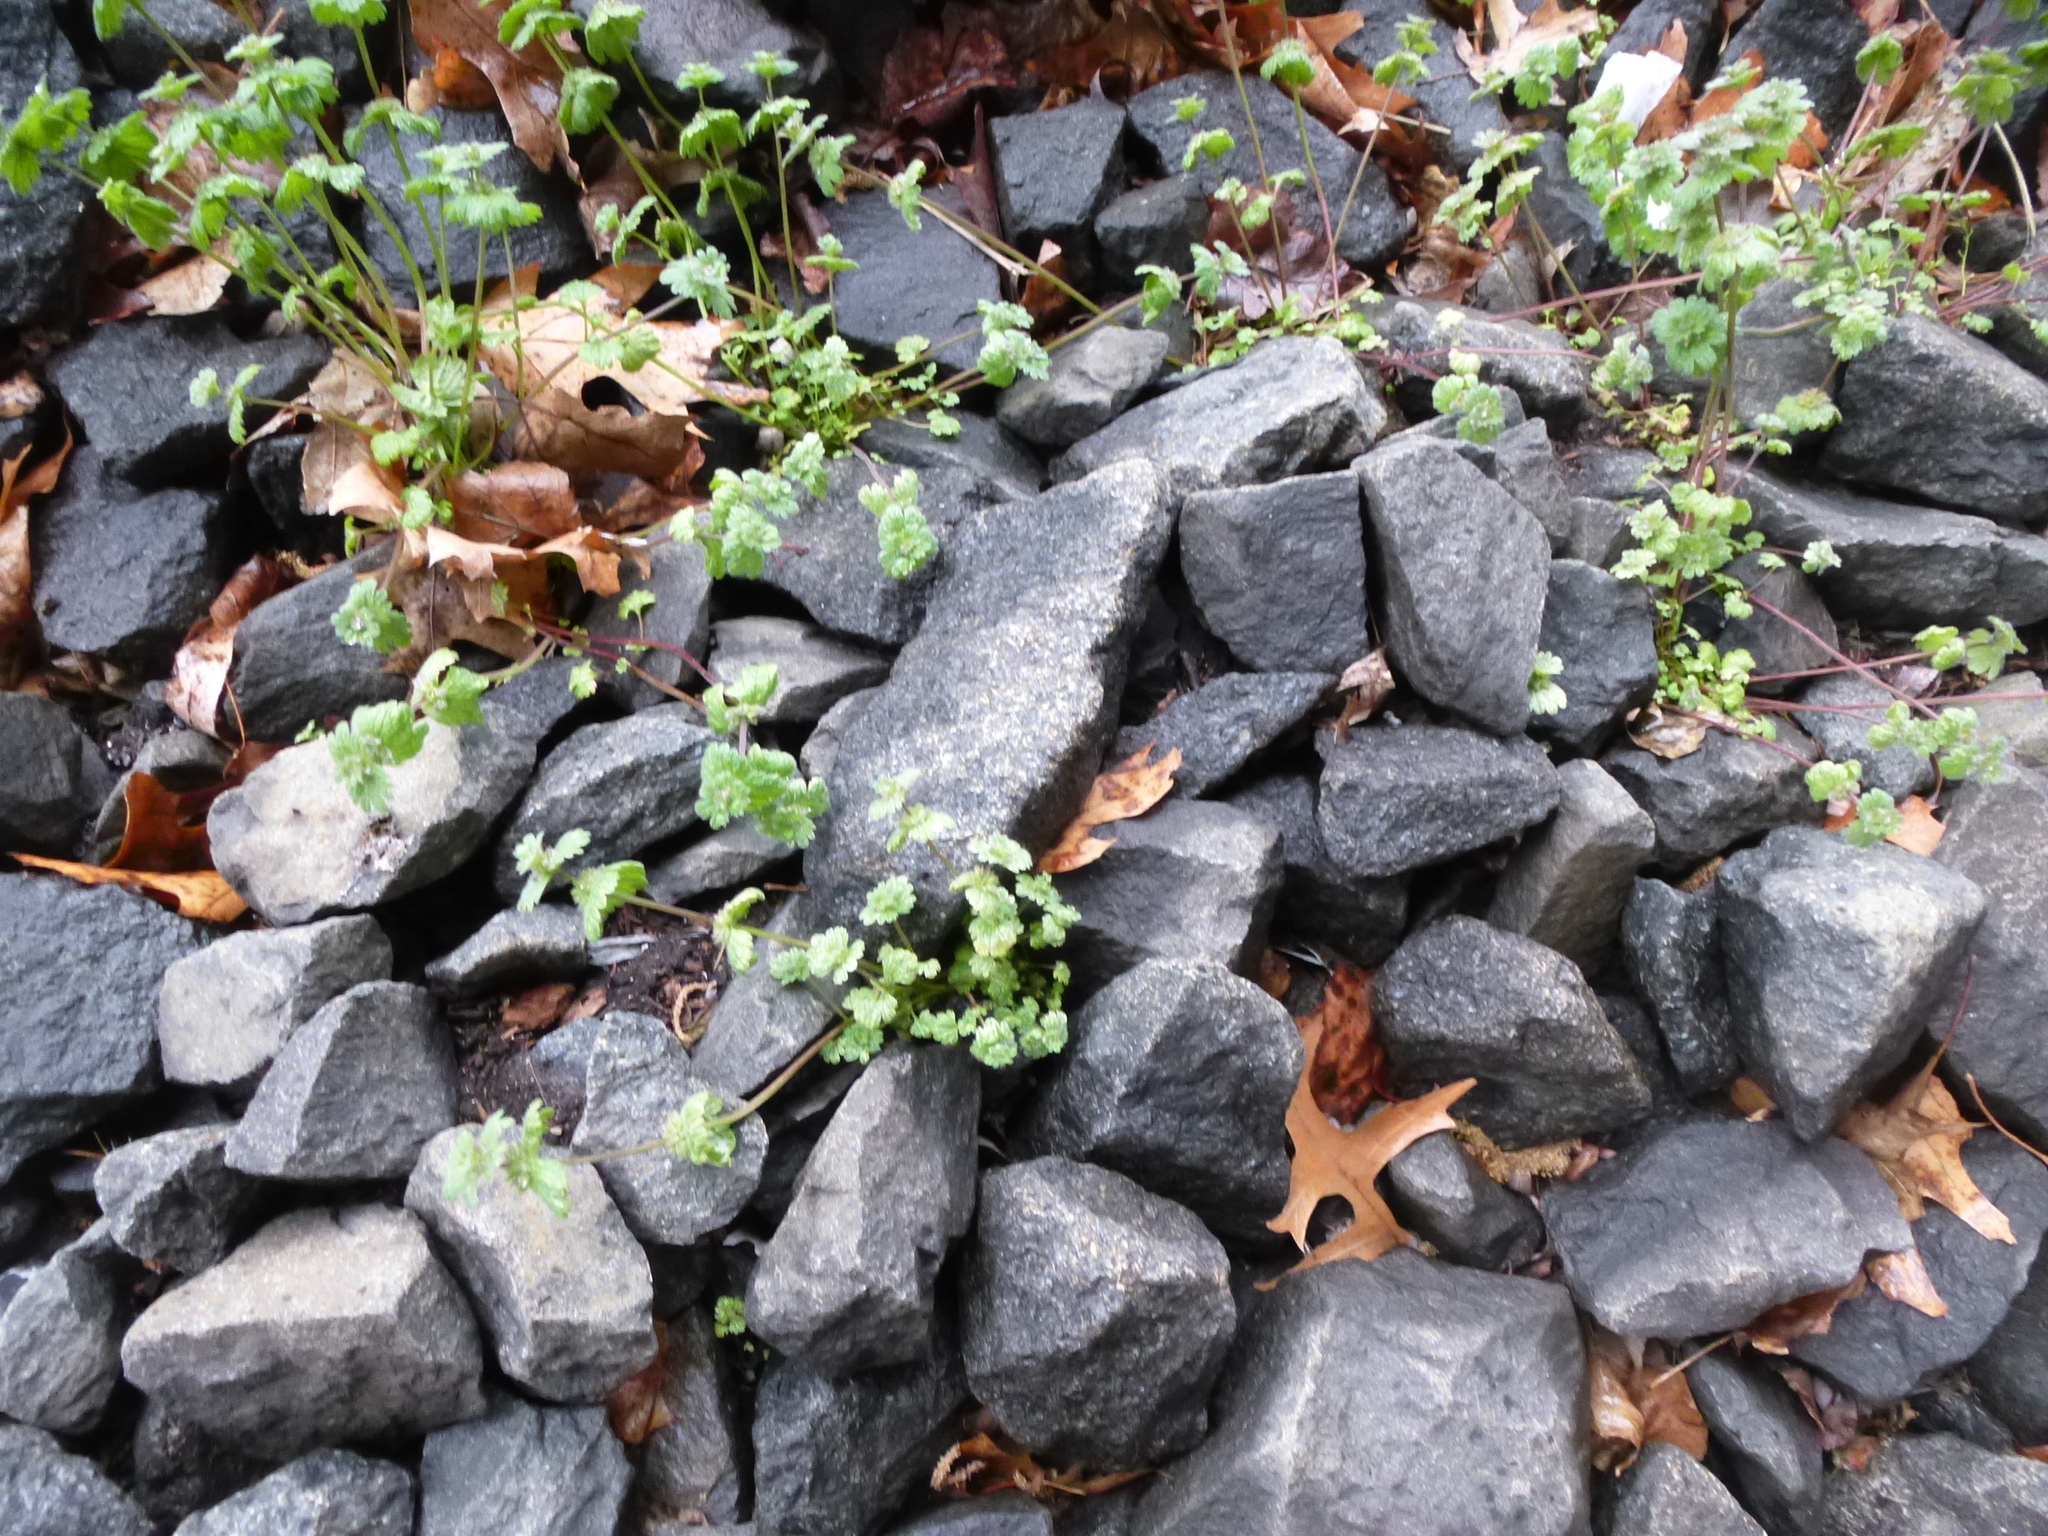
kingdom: Plantae
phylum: Tracheophyta
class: Magnoliopsida
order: Lamiales
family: Lamiaceae
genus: Lamium
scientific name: Lamium amplexicaule
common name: Henbit dead-nettle
